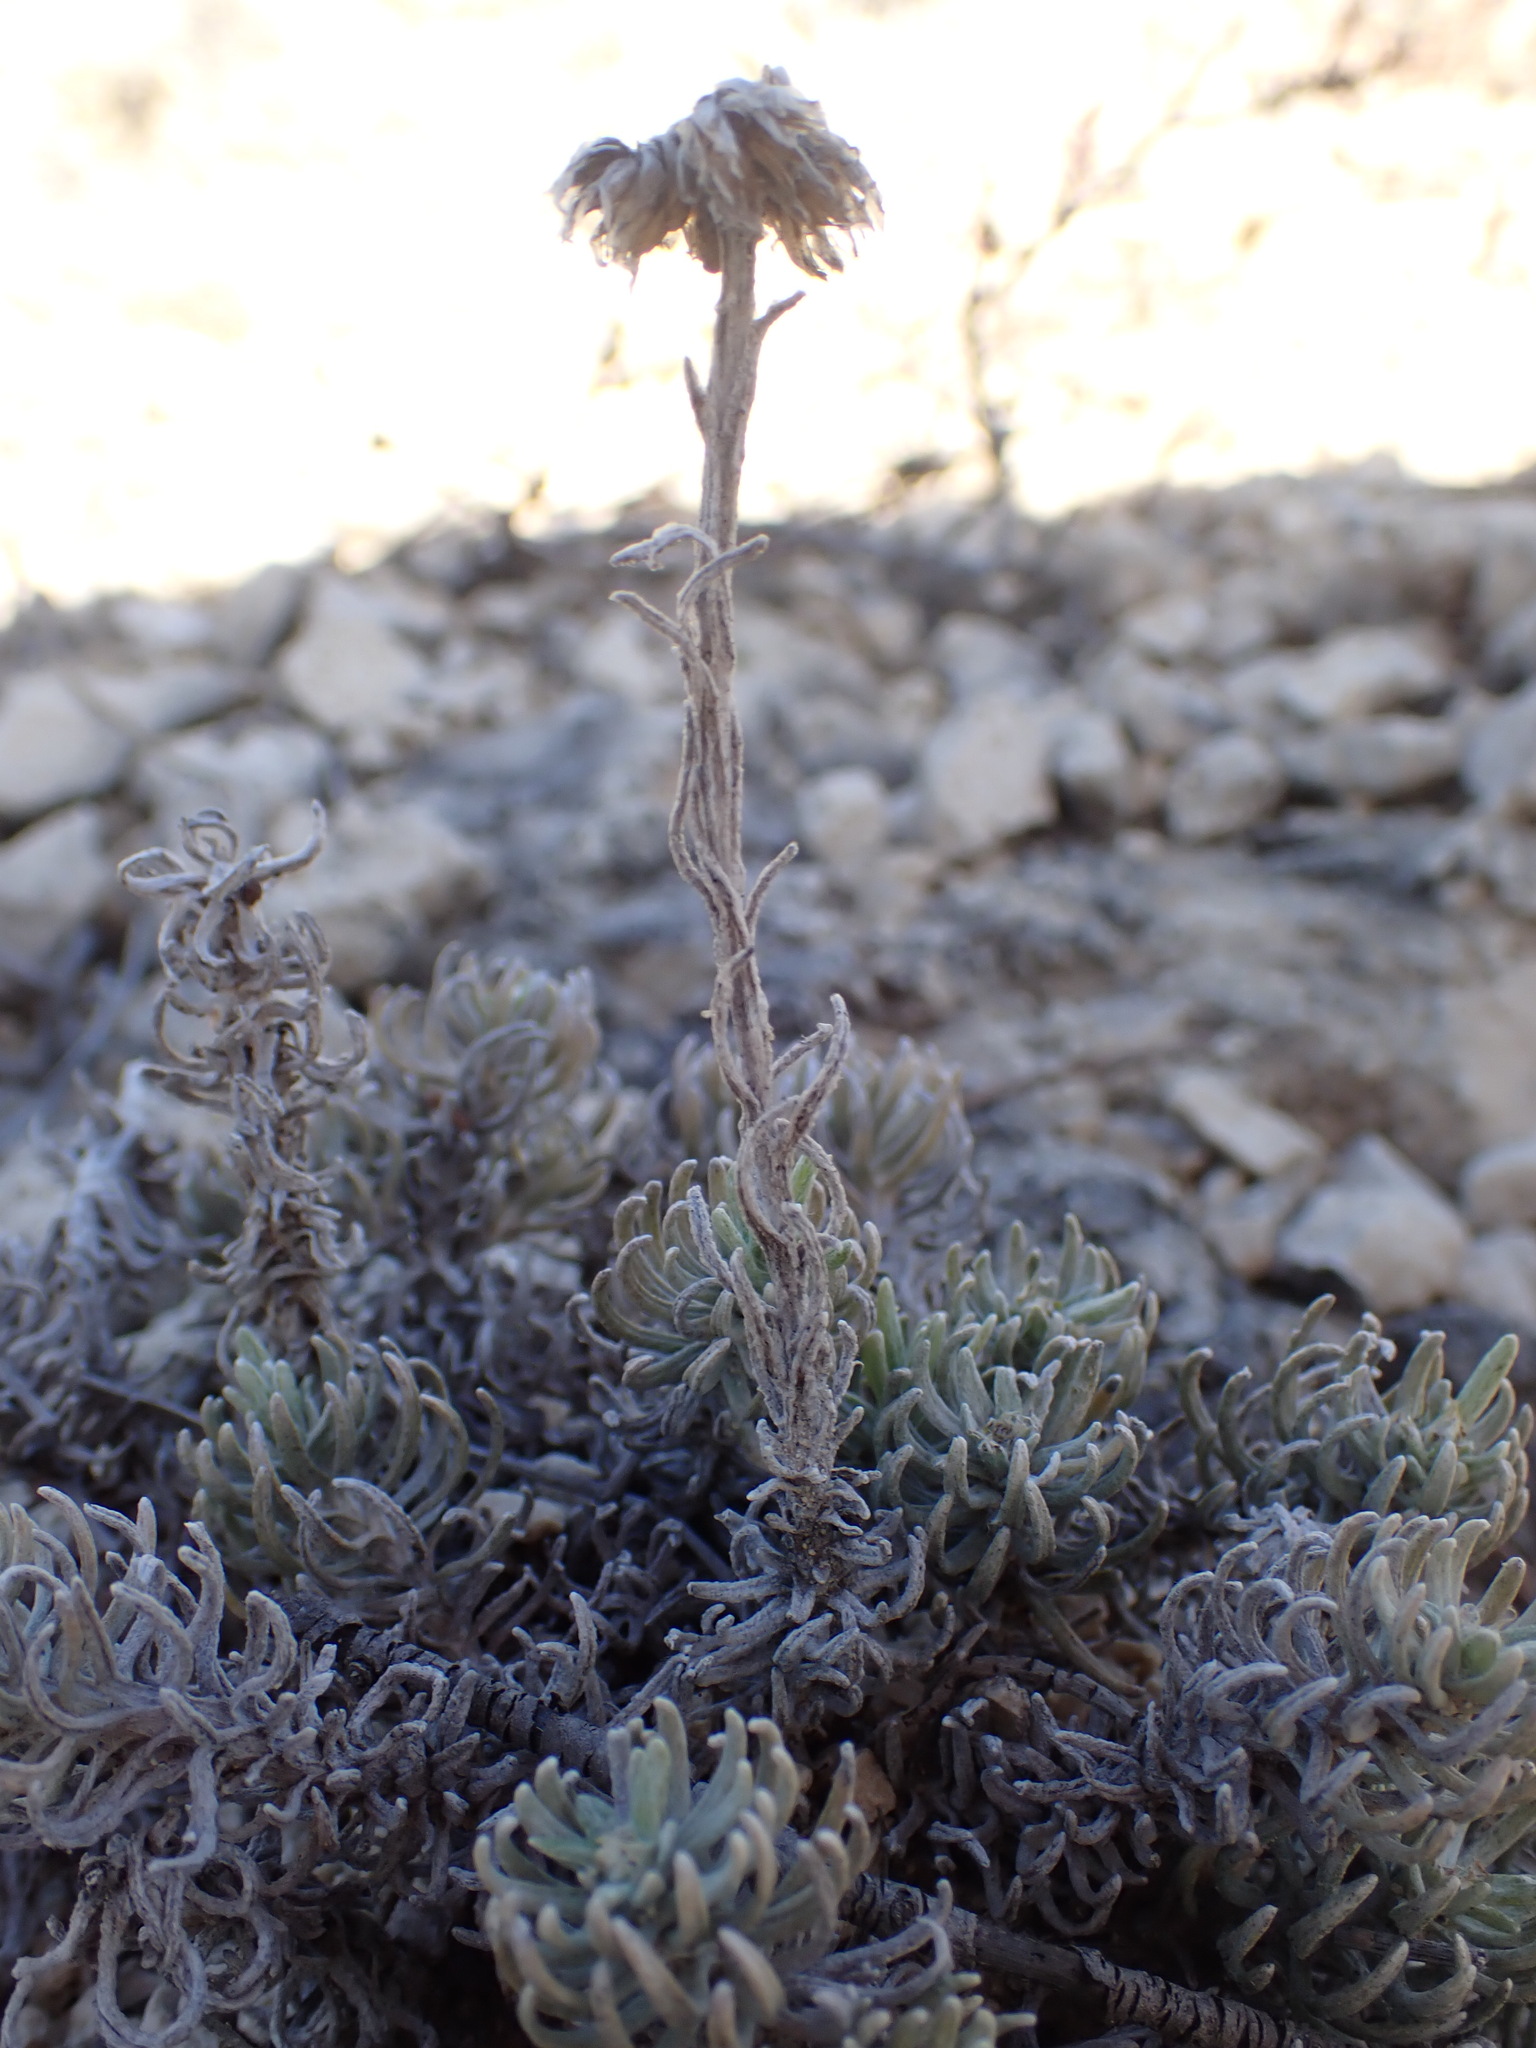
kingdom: Plantae
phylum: Tracheophyta
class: Magnoliopsida
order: Asterales
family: Asteraceae
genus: Helichrysum
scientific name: Helichrysum stoechas
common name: Goldilocks
